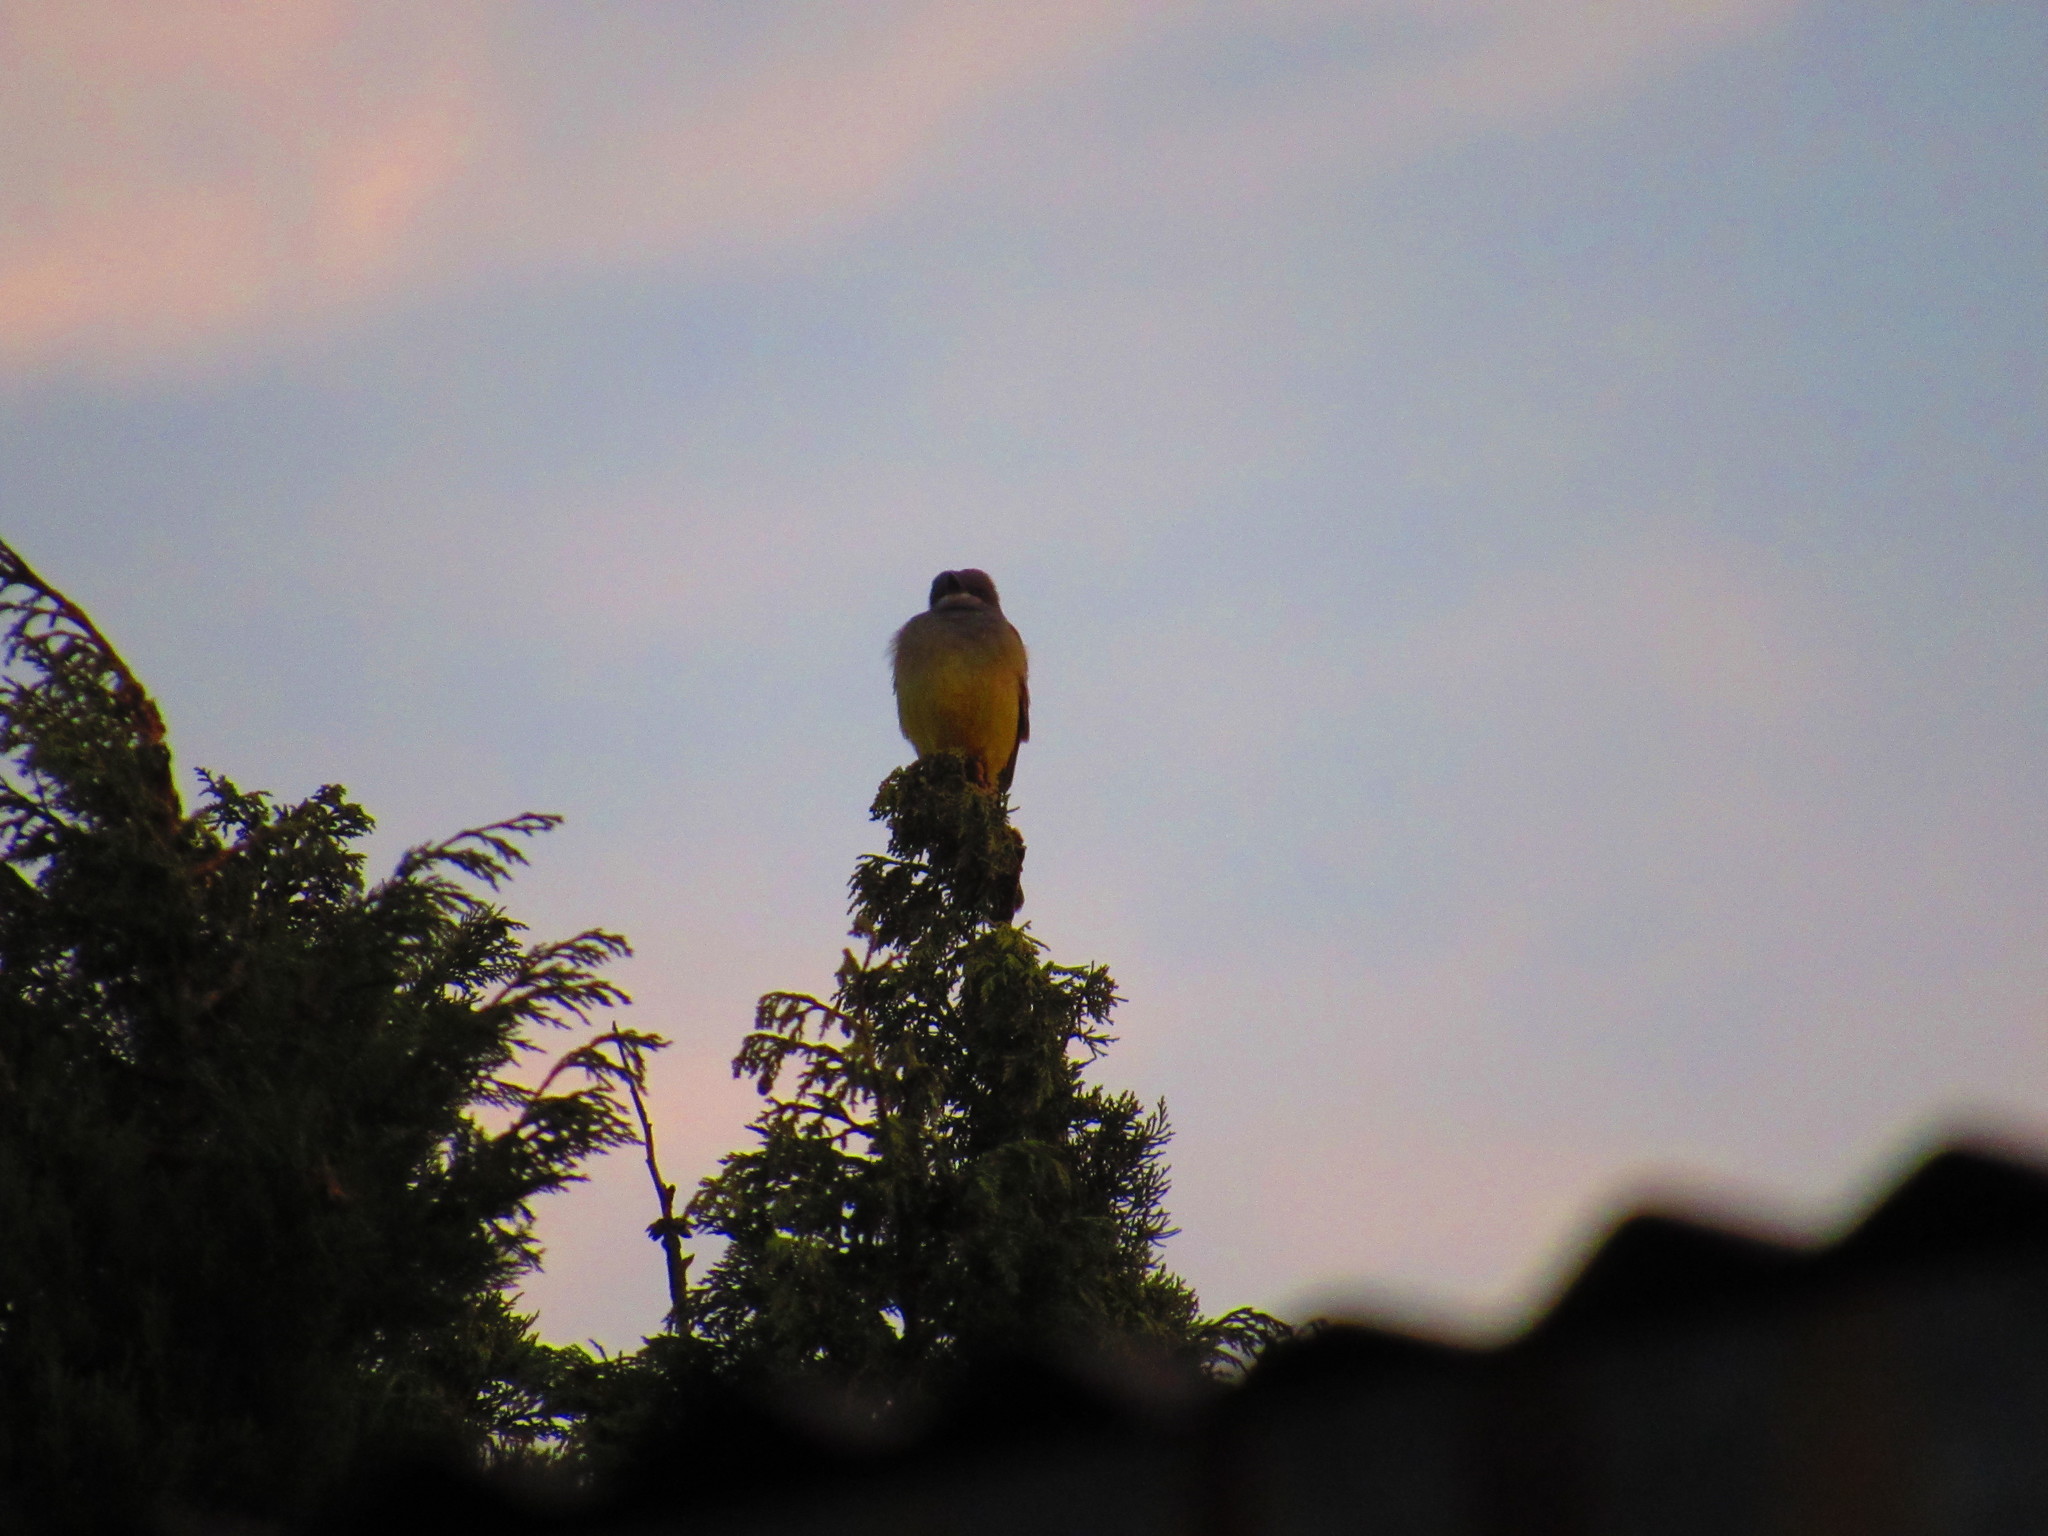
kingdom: Animalia
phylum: Chordata
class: Aves
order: Passeriformes
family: Tyrannidae
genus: Tyrannus
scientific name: Tyrannus vociferans
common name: Cassin's kingbird
